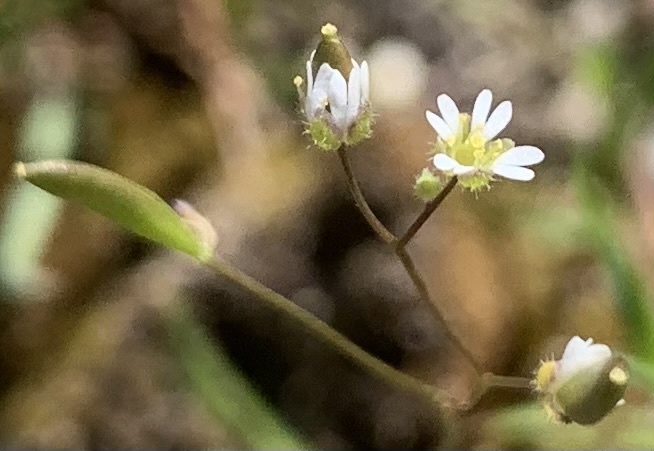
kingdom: Plantae
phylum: Tracheophyta
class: Magnoliopsida
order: Brassicales
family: Brassicaceae
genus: Draba
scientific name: Draba verna
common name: Spring draba
